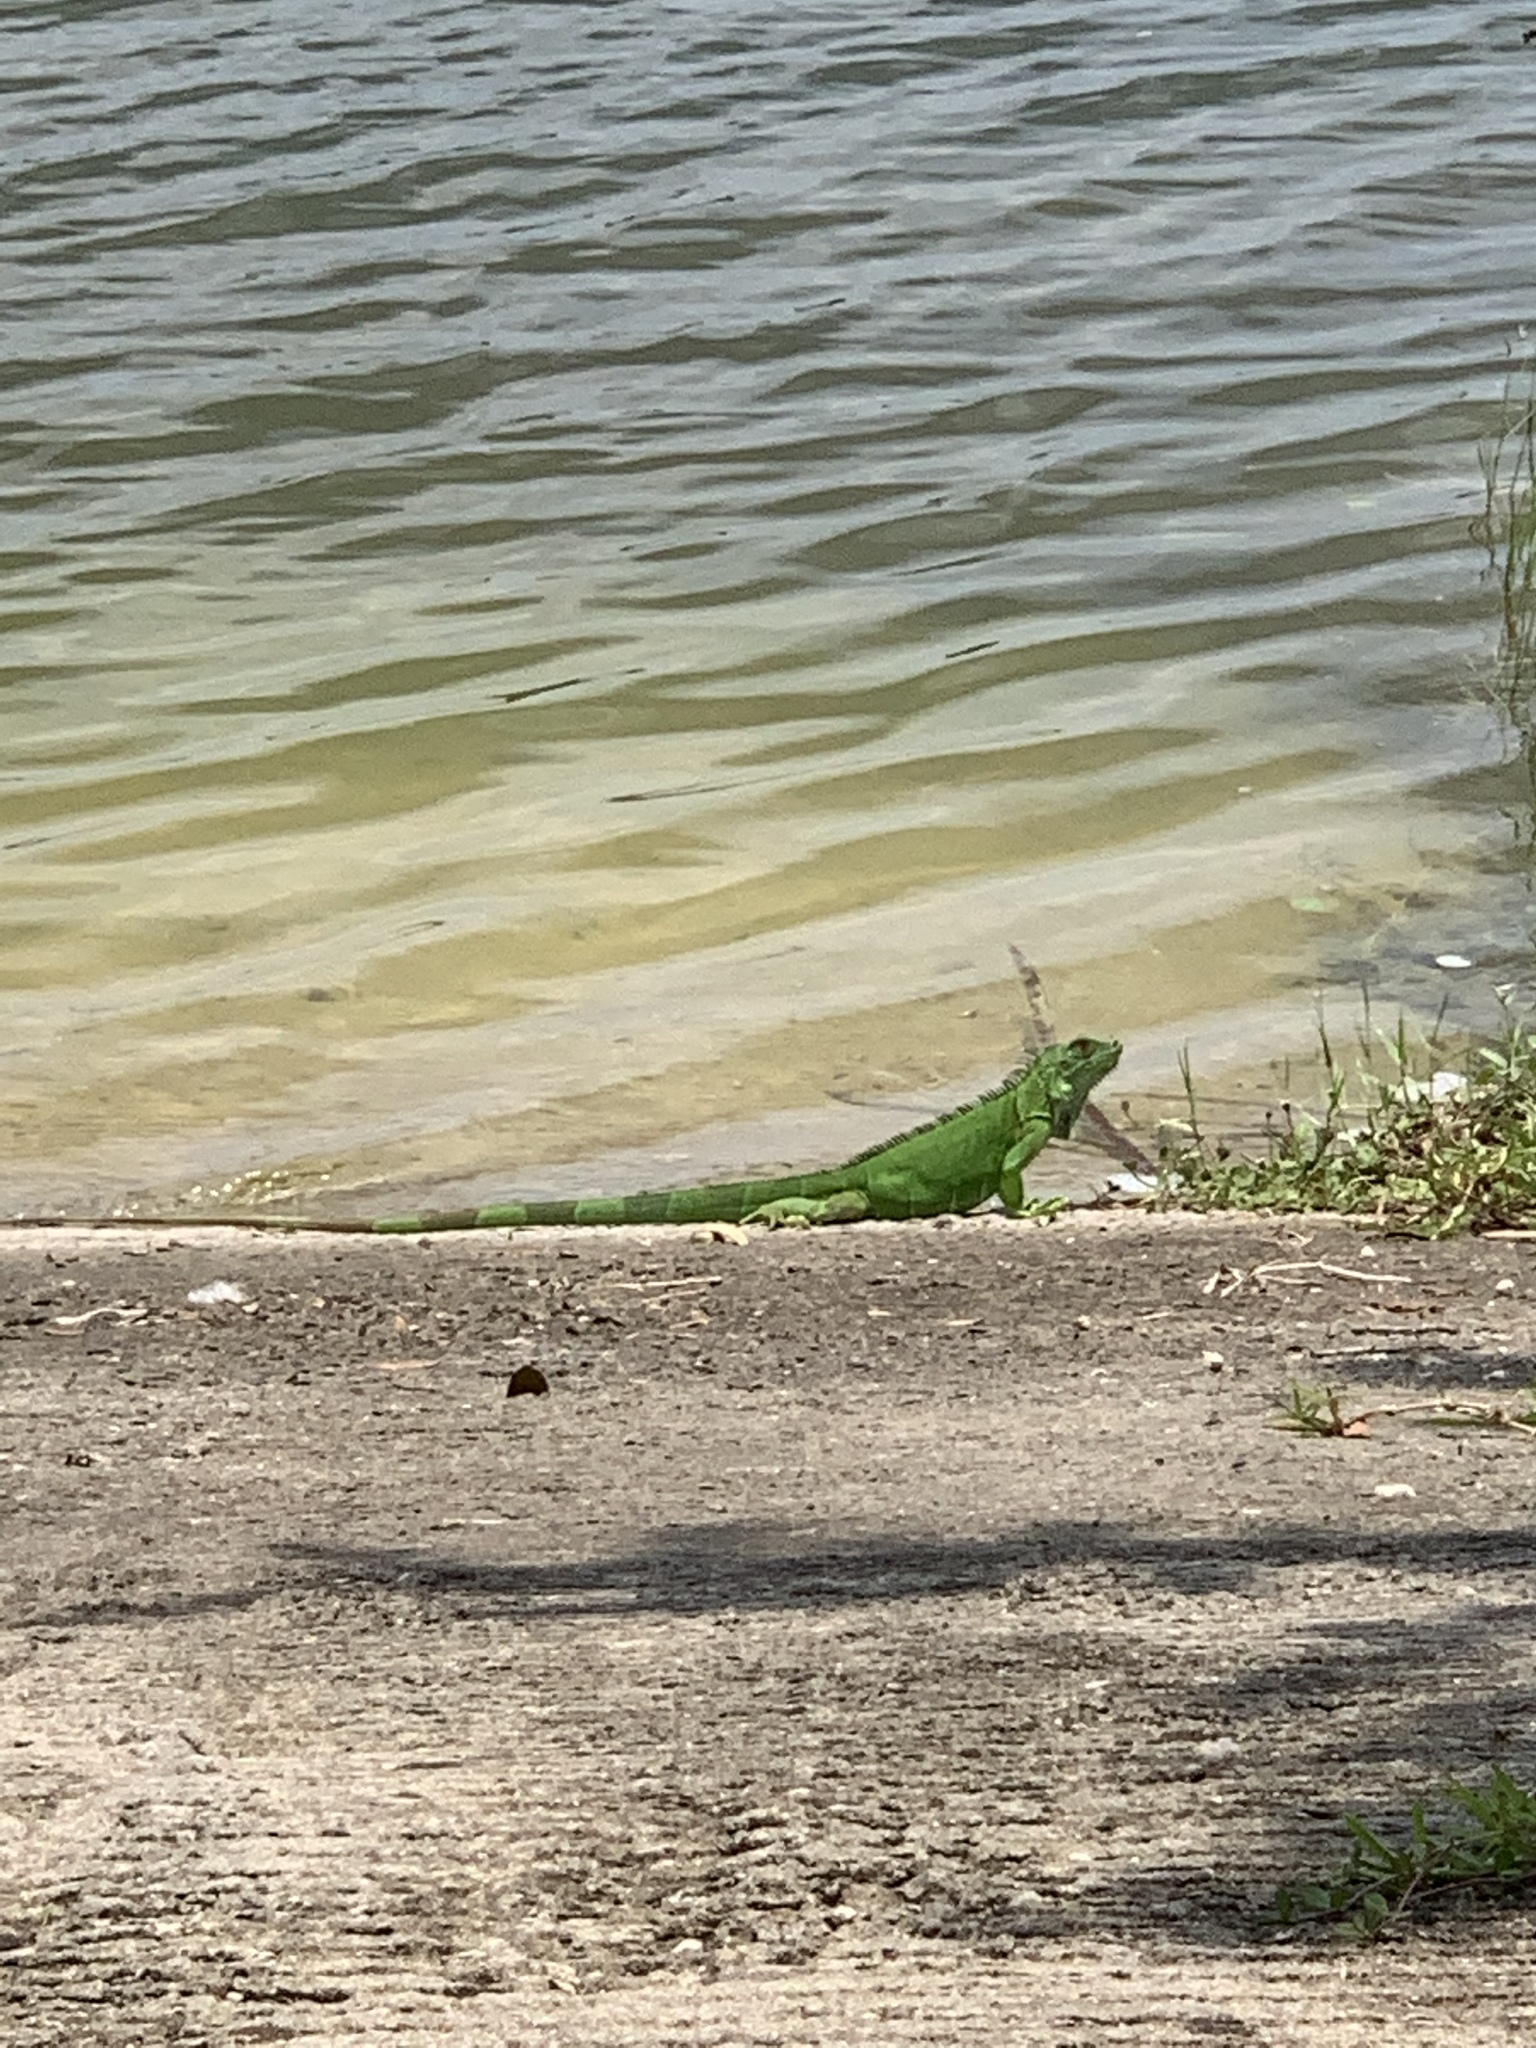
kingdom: Animalia
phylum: Chordata
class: Squamata
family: Iguanidae
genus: Iguana
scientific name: Iguana iguana
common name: Green iguana
